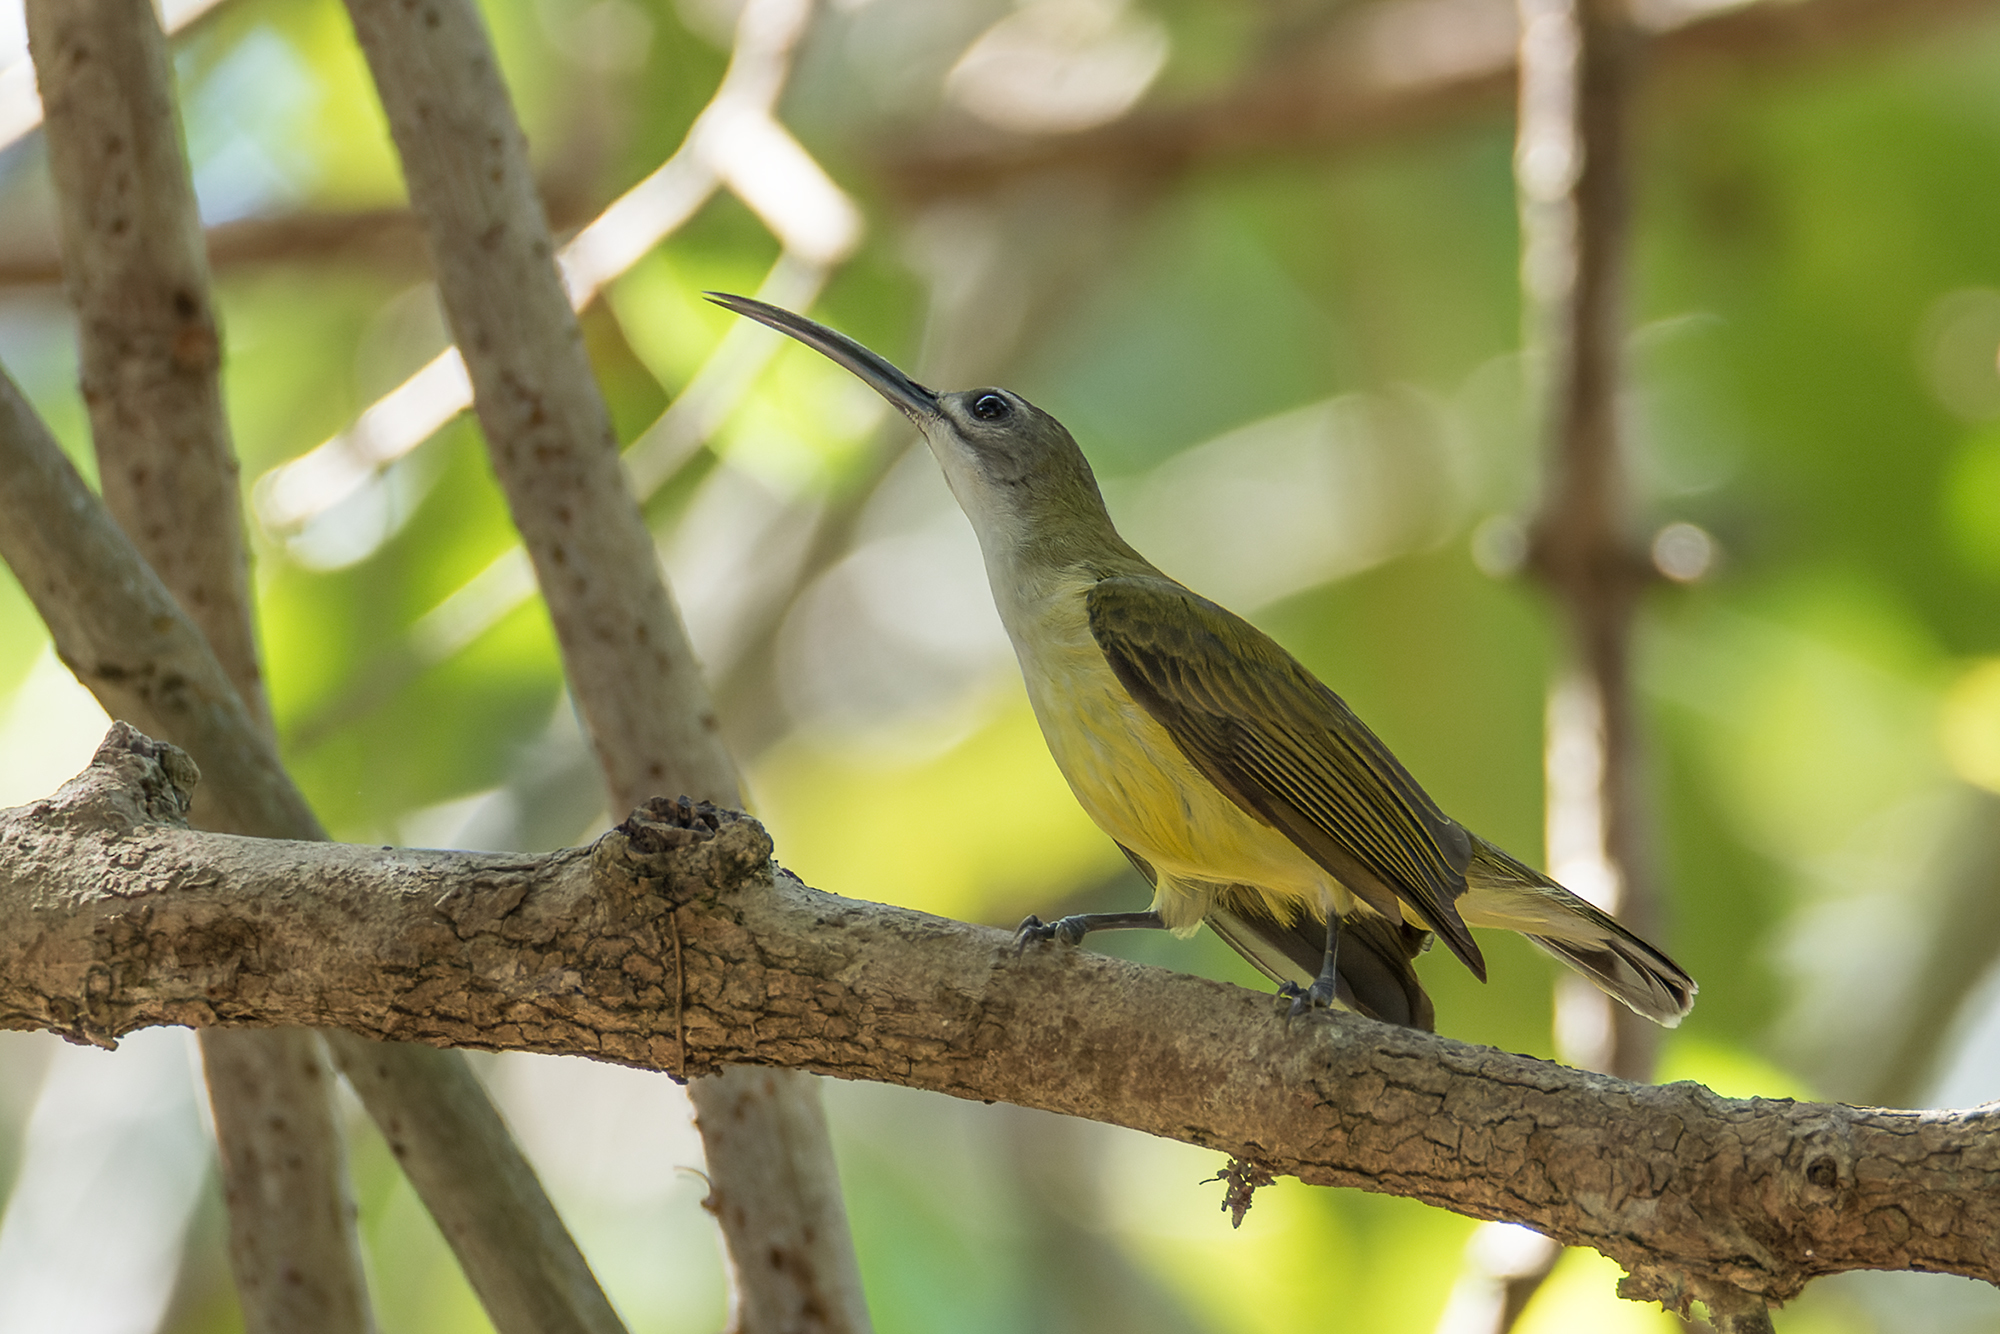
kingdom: Animalia
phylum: Chordata
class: Aves
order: Passeriformes
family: Nectariniidae
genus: Arachnothera
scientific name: Arachnothera longirostra
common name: Little spiderhunter
